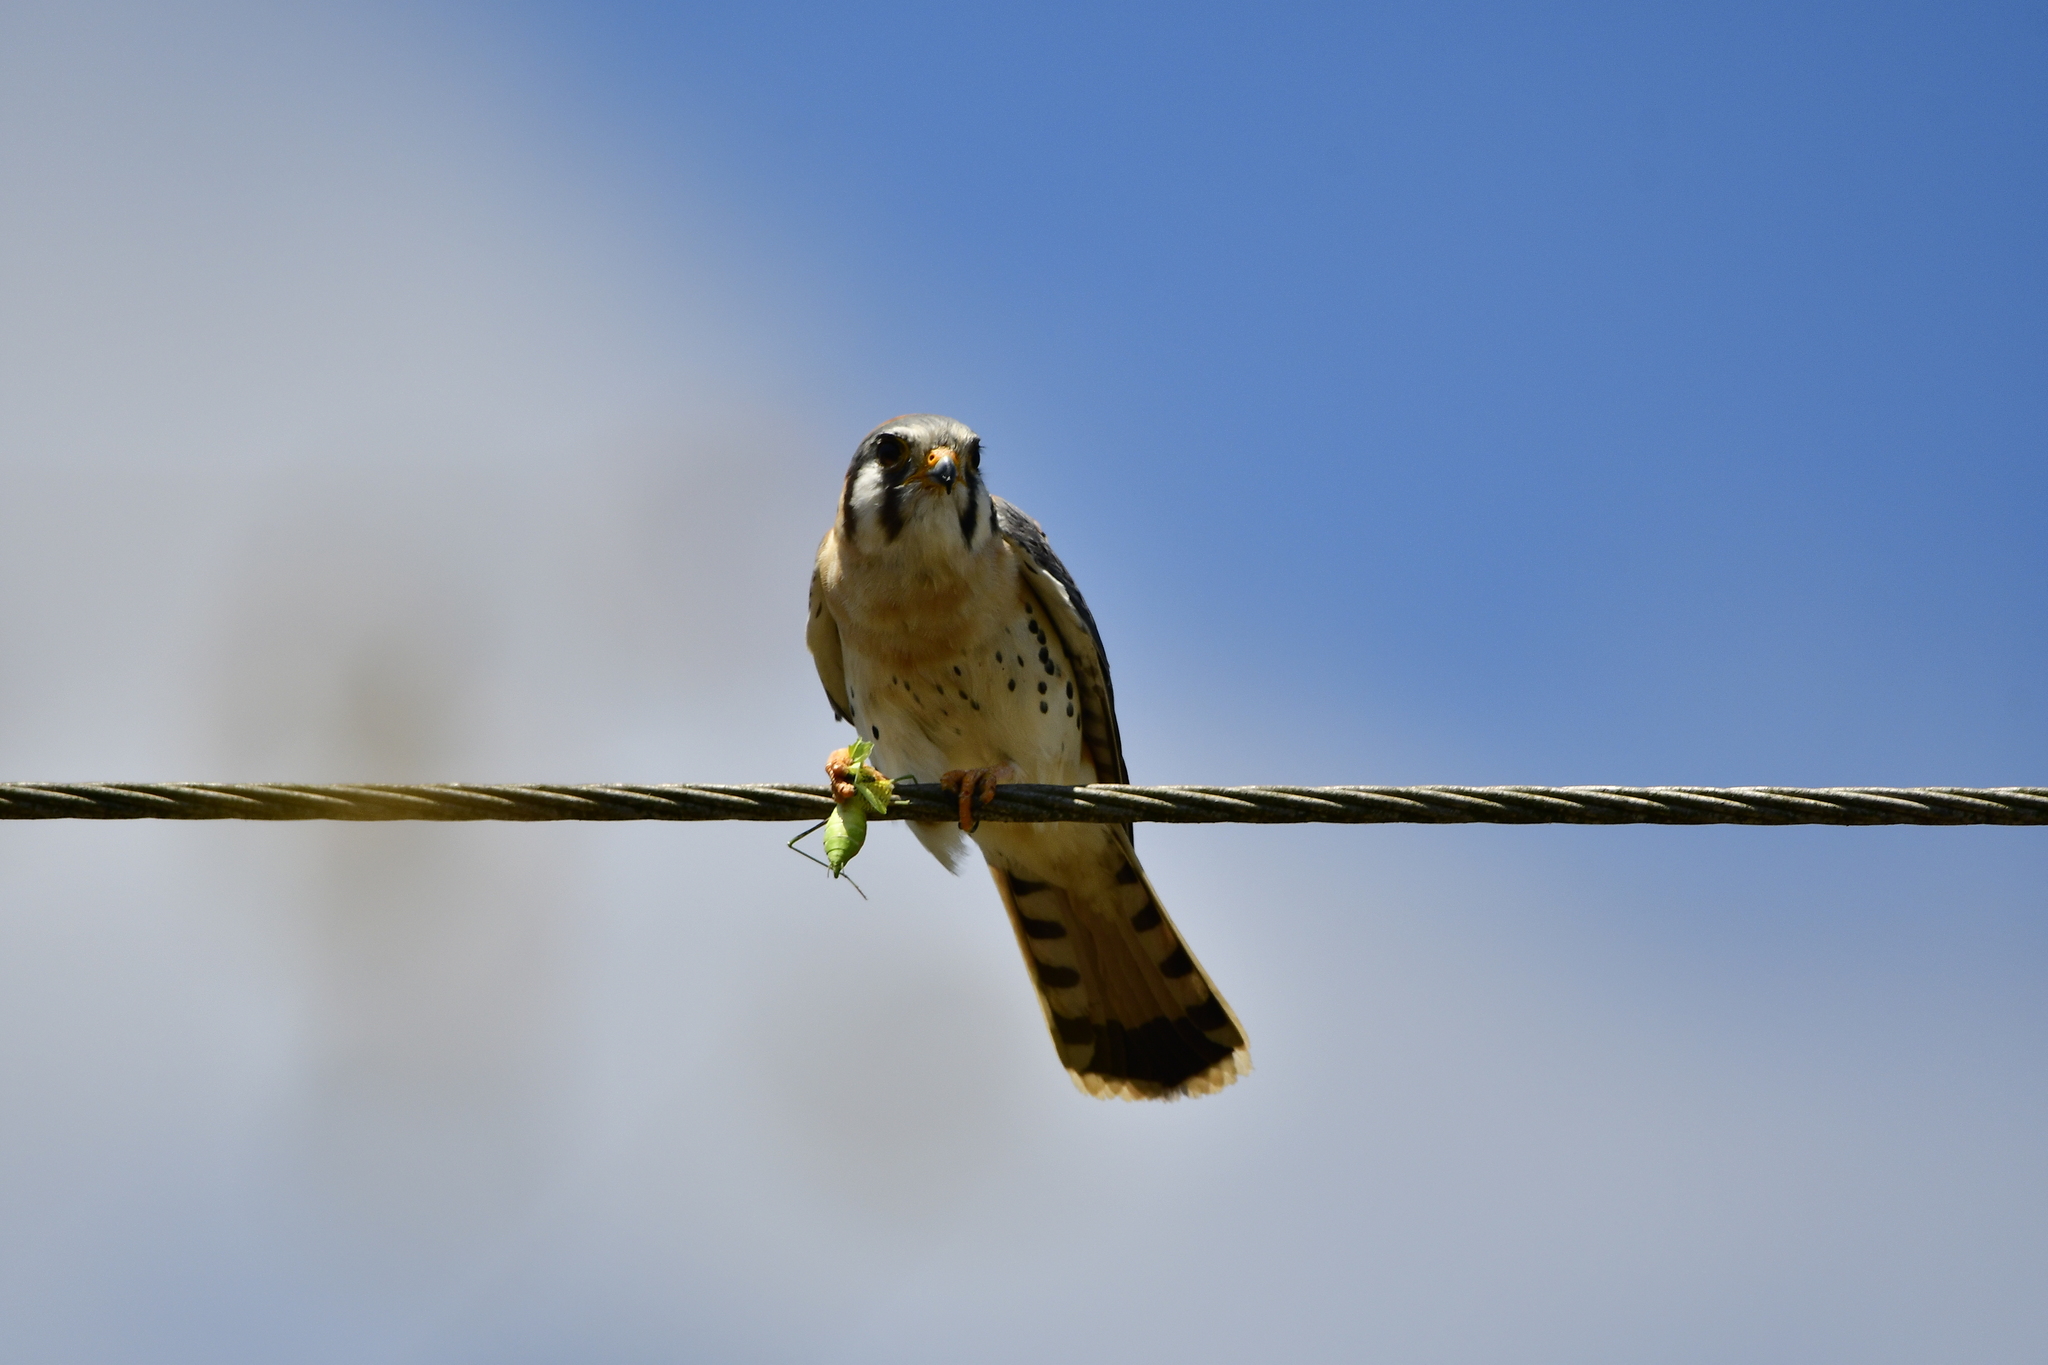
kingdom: Animalia
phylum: Chordata
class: Aves
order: Falconiformes
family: Falconidae
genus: Falco
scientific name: Falco sparverius
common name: American kestrel
